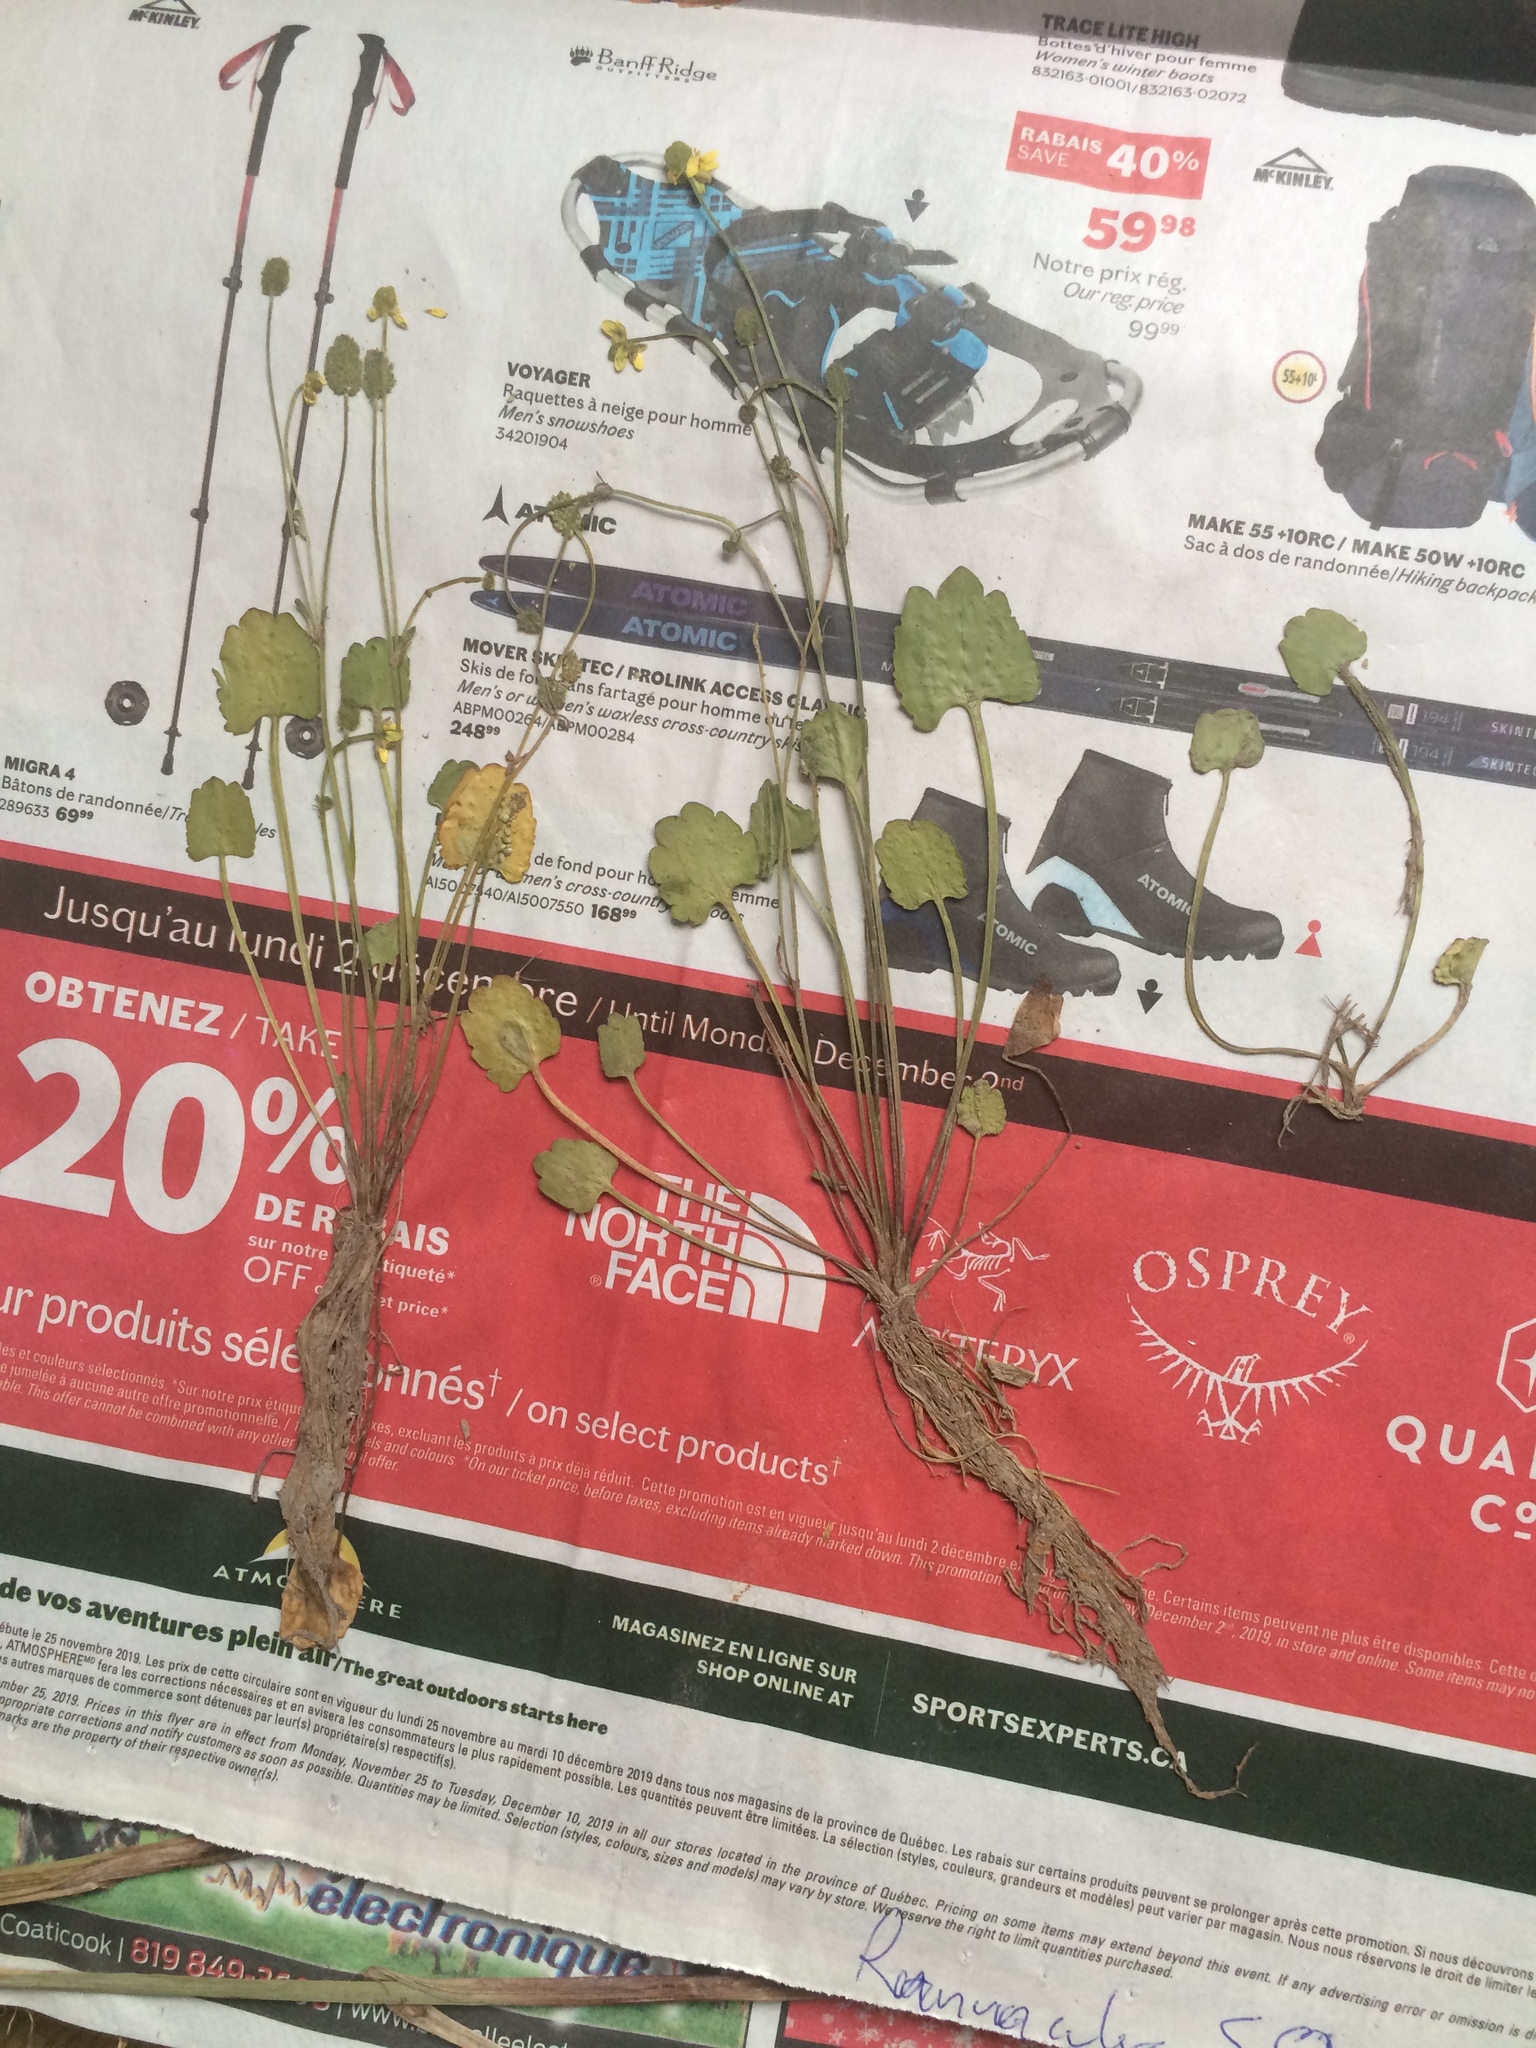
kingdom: Plantae
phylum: Tracheophyta
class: Magnoliopsida
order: Ranunculales
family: Ranunculaceae
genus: Halerpestes
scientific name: Halerpestes cymbalaria
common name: Seaside crowfoot
